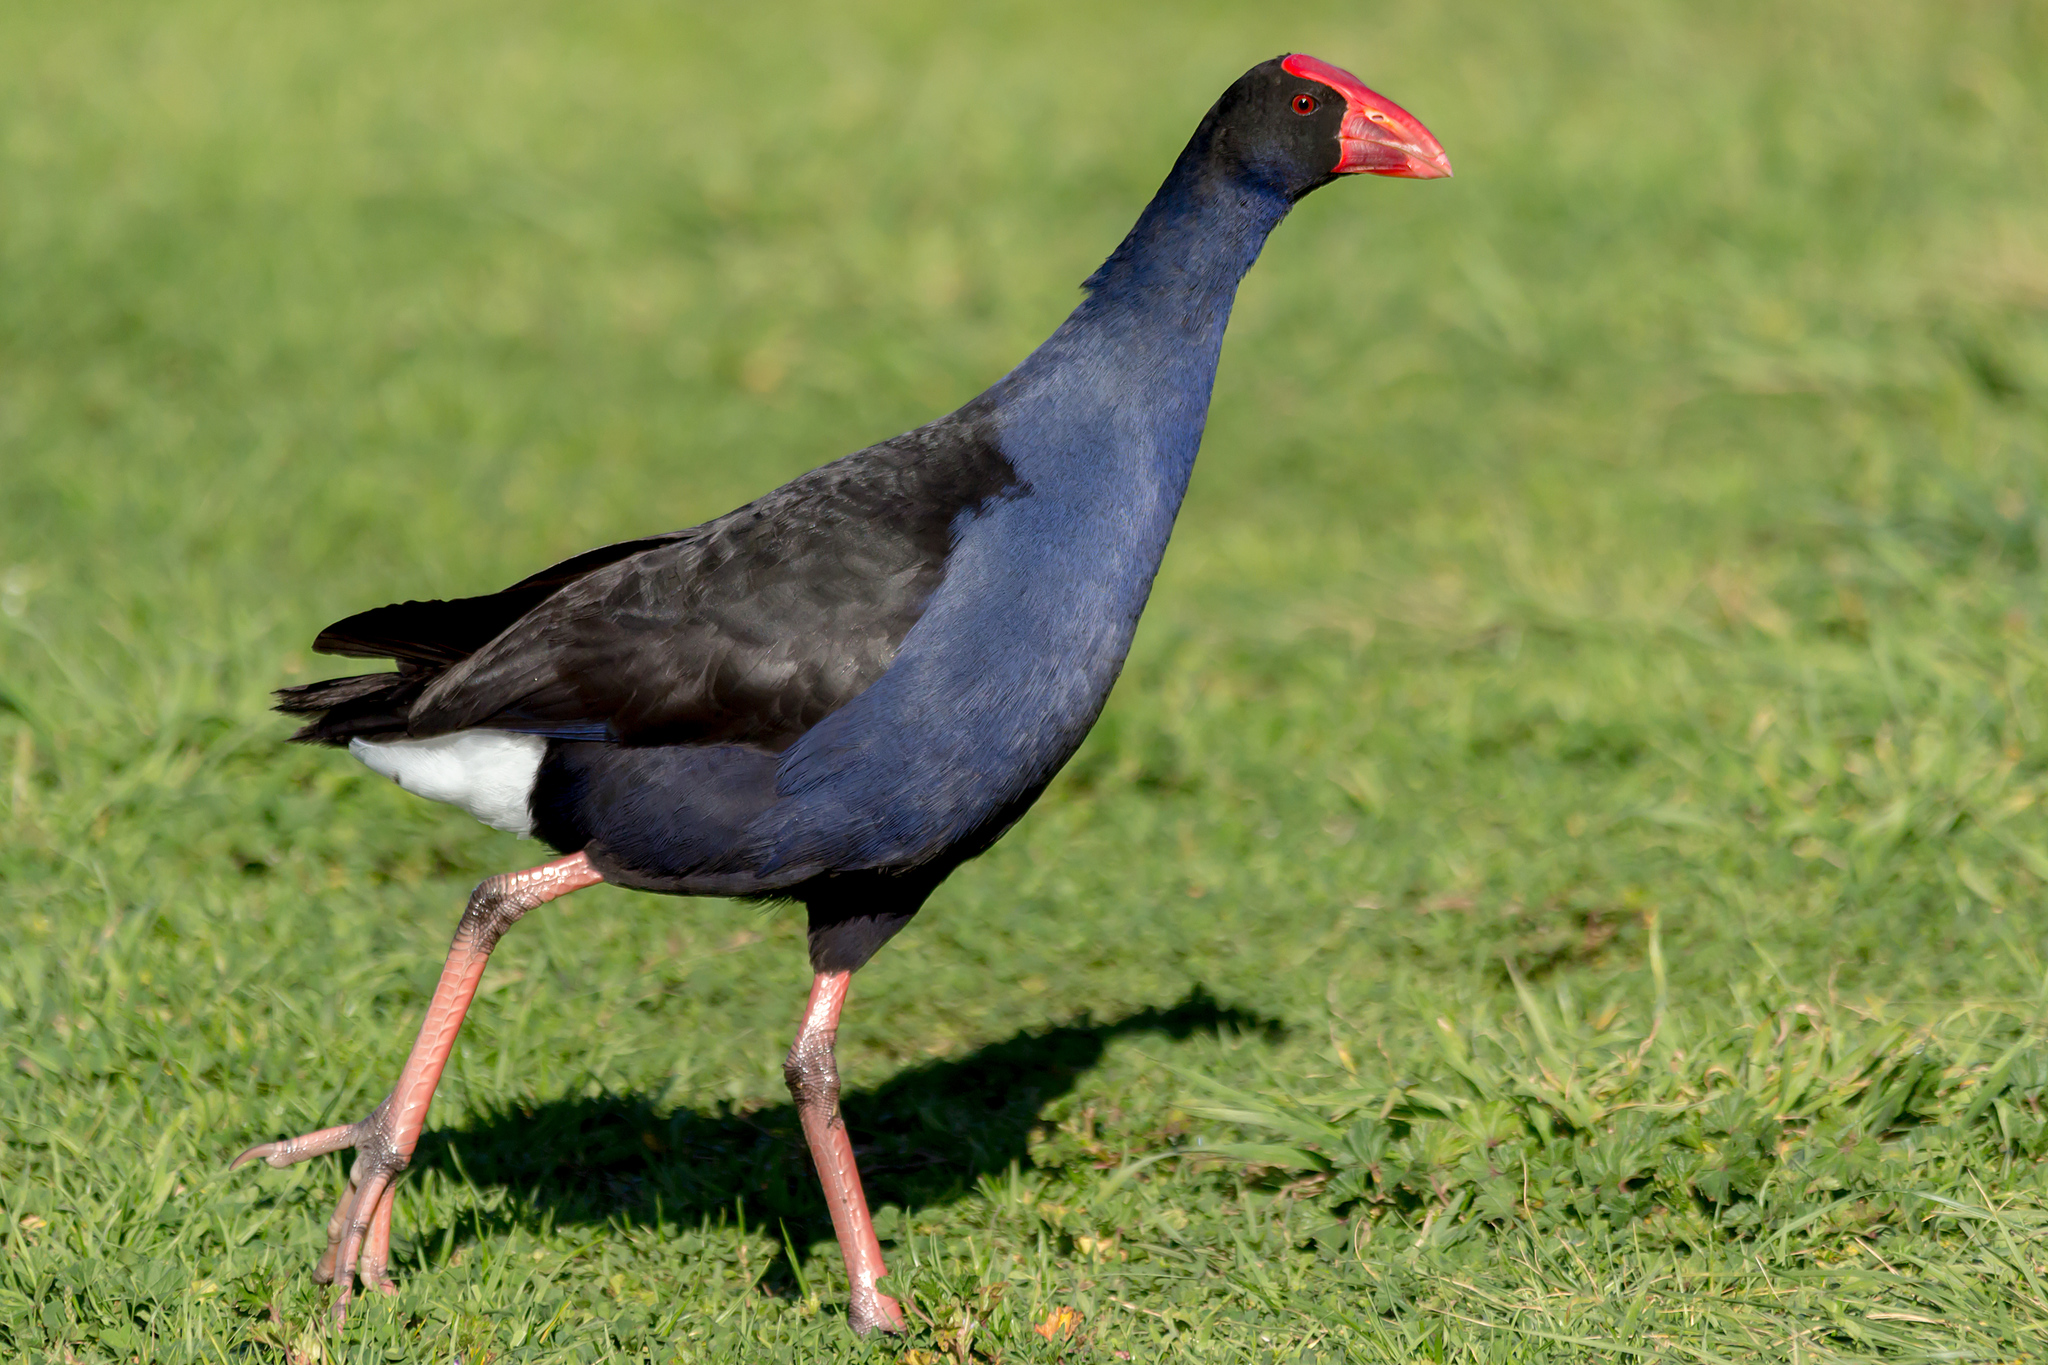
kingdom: Animalia
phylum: Chordata
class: Aves
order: Gruiformes
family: Rallidae
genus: Porphyrio
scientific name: Porphyrio melanotus
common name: Australasian swamphen
